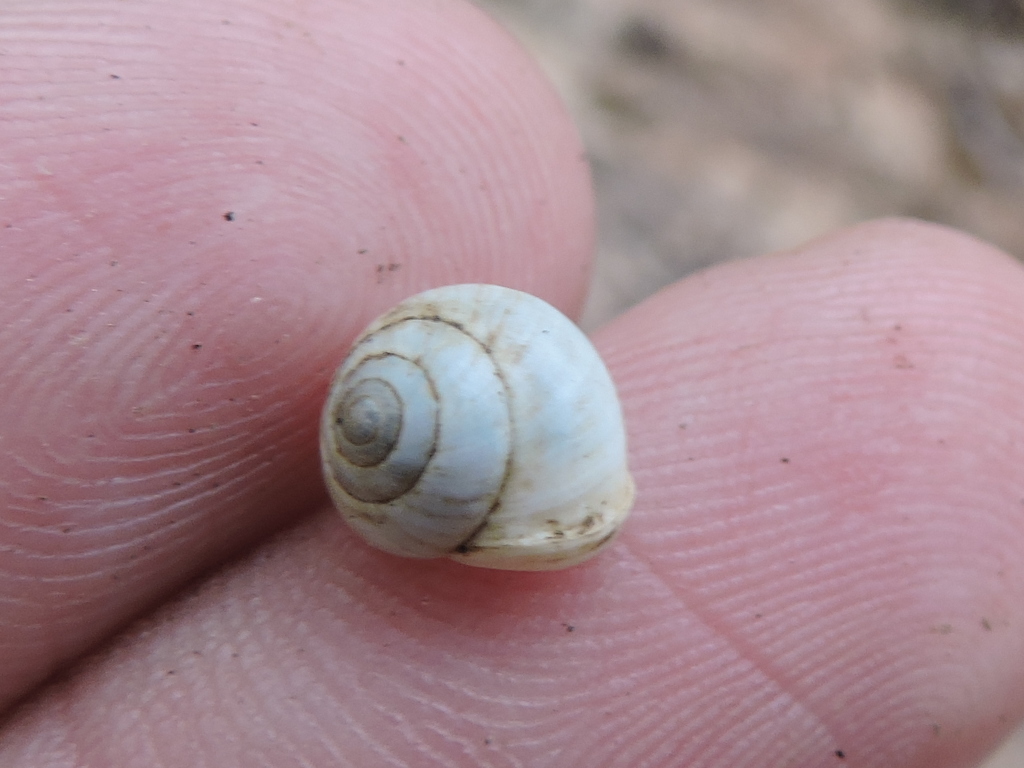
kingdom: Animalia
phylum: Mollusca
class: Gastropoda
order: Cycloneritida
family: Helicinidae
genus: Helicina
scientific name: Helicina orbiculata
